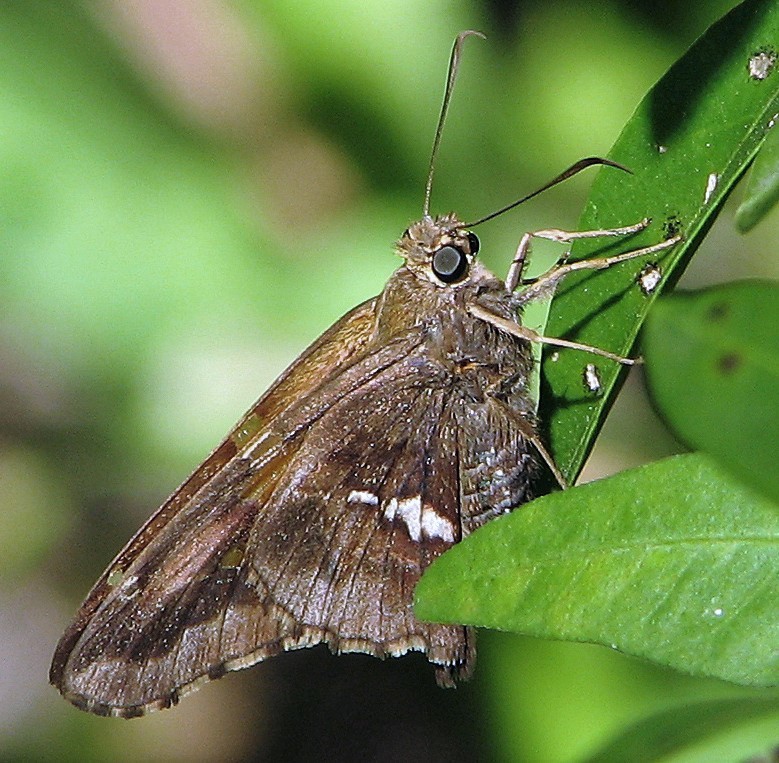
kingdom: Animalia
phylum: Arthropoda
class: Insecta
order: Lepidoptera
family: Hesperiidae
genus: Epargyreus
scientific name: Epargyreus tmolis
